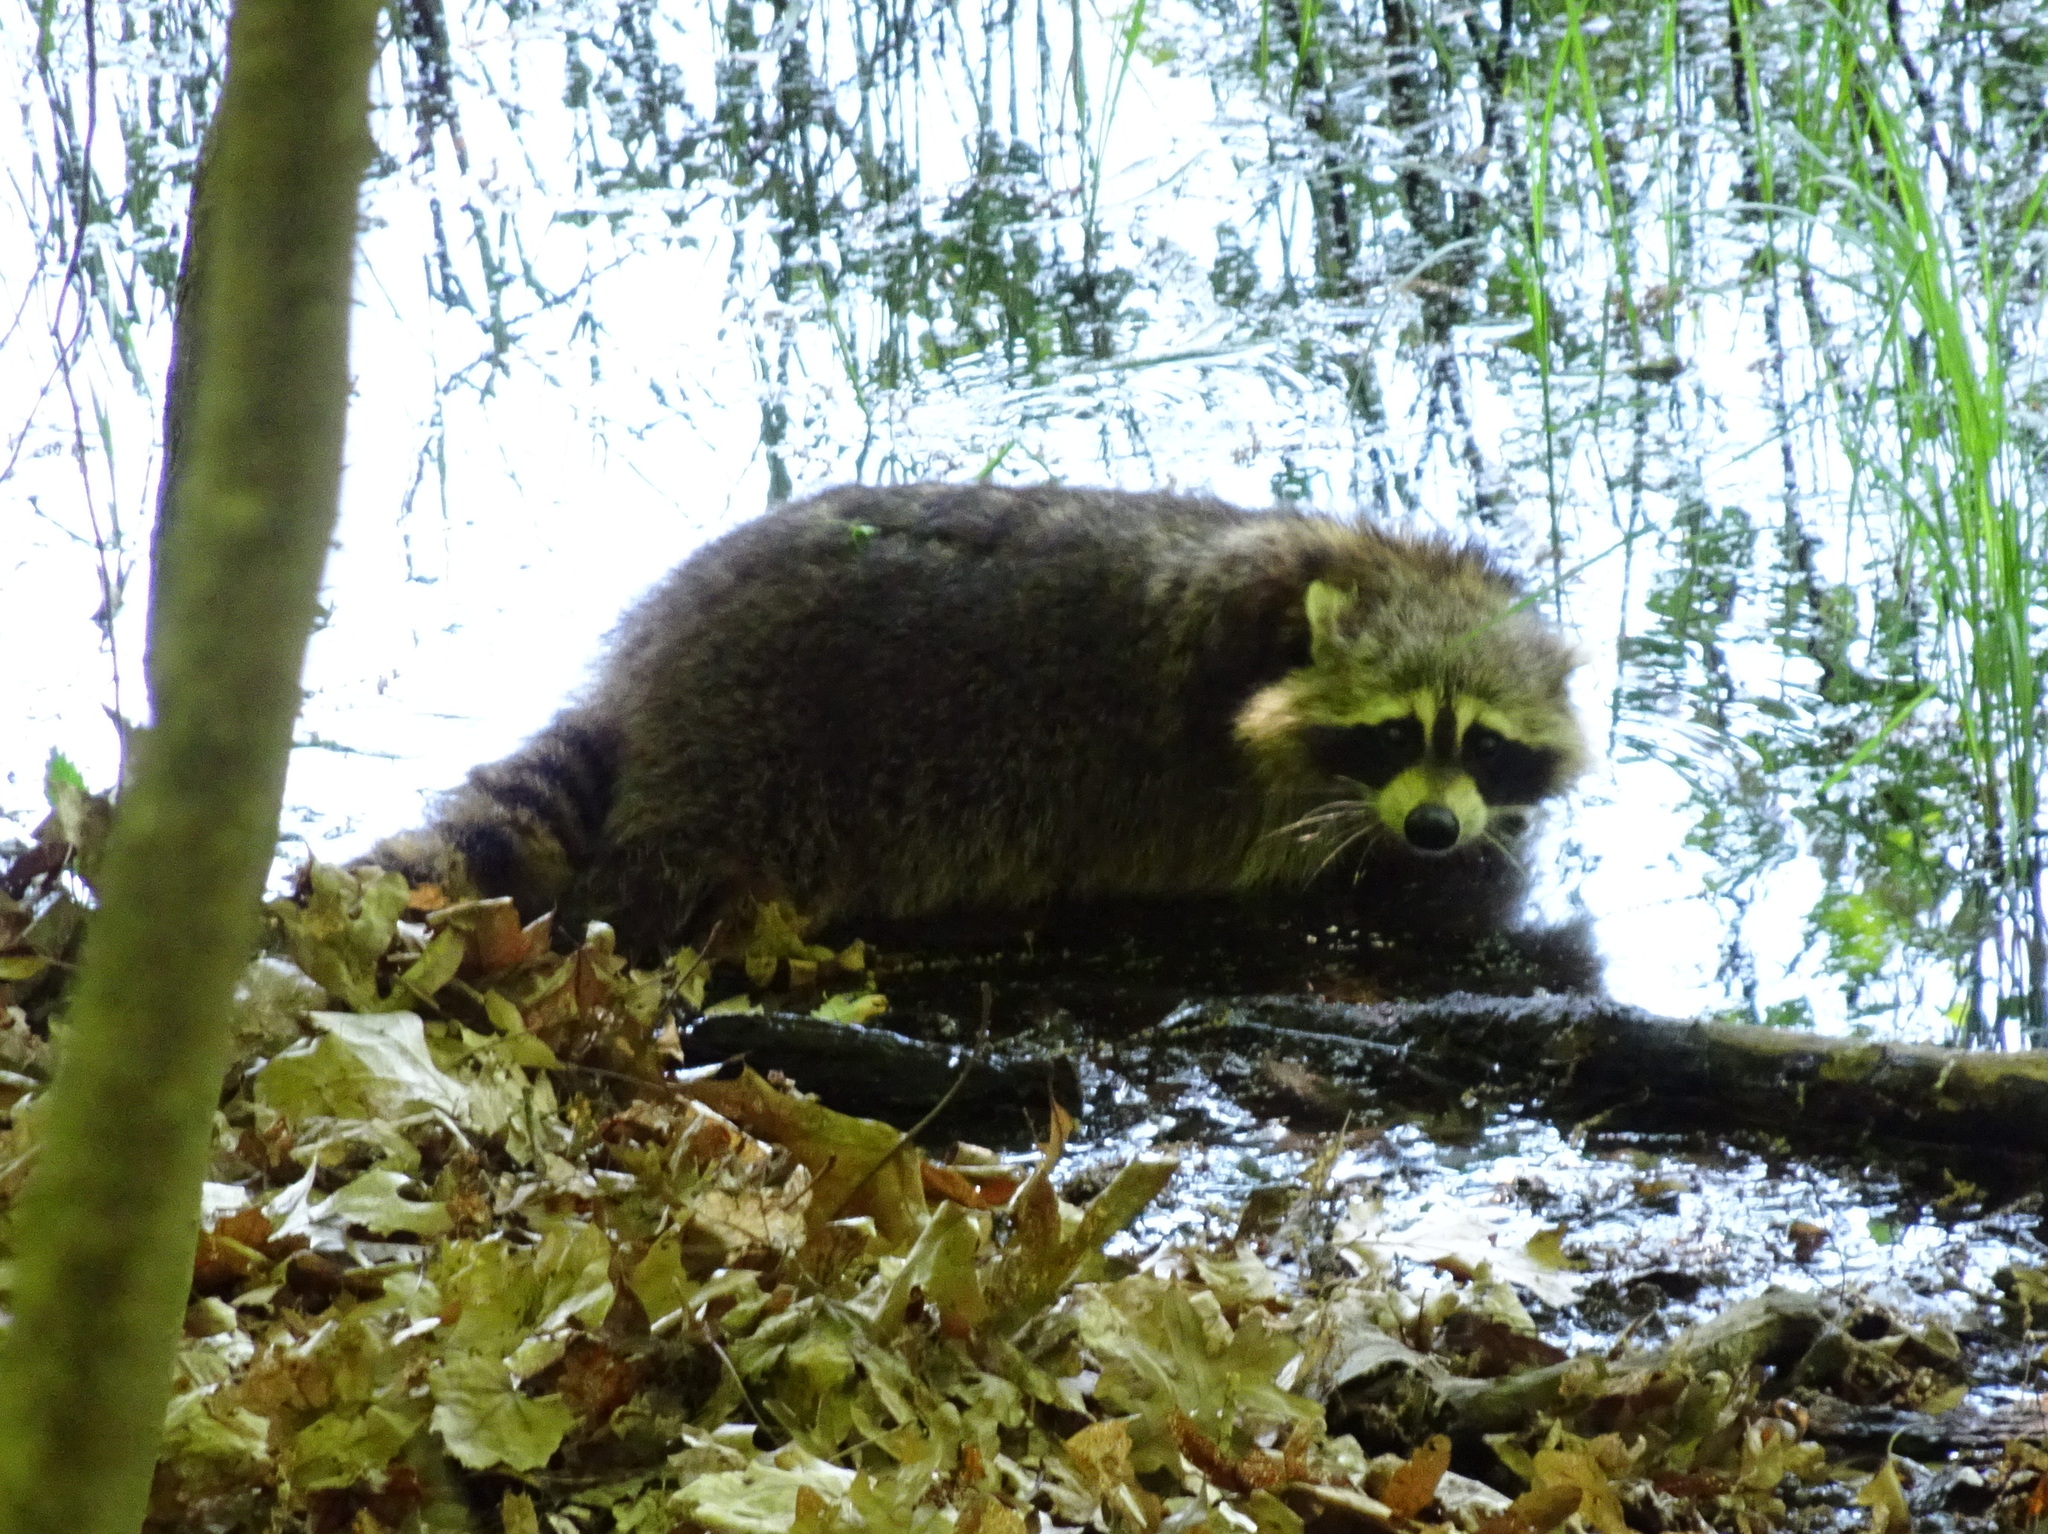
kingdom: Animalia
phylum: Chordata
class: Mammalia
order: Carnivora
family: Procyonidae
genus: Procyon
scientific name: Procyon lotor
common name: Raccoon
